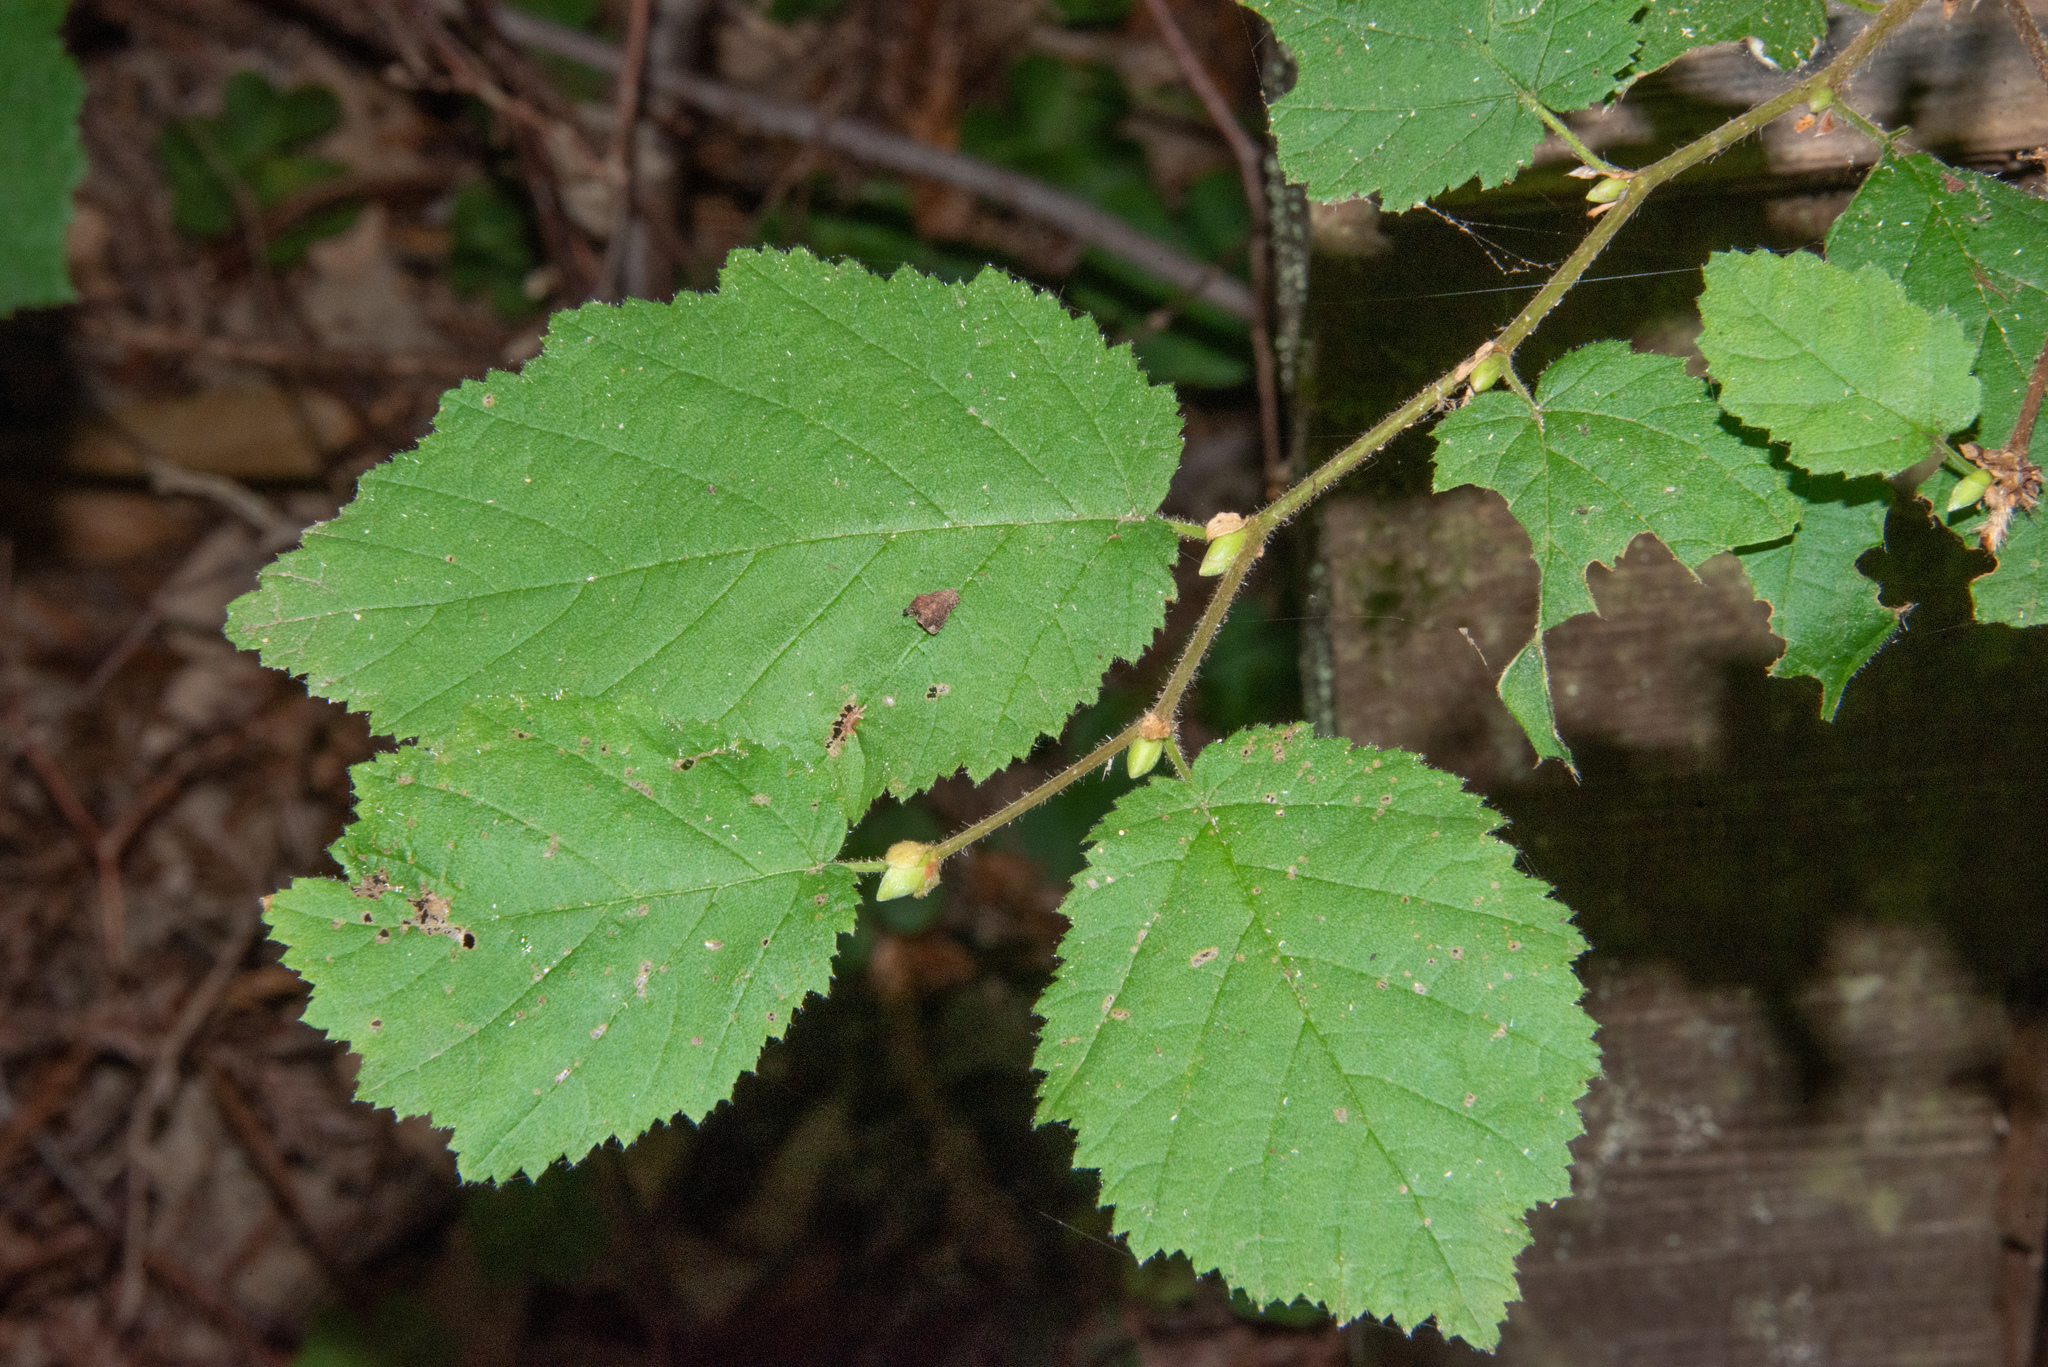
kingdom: Plantae
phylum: Tracheophyta
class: Magnoliopsida
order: Fagales
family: Betulaceae
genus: Corylus
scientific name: Corylus cornuta
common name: Beaked hazel
